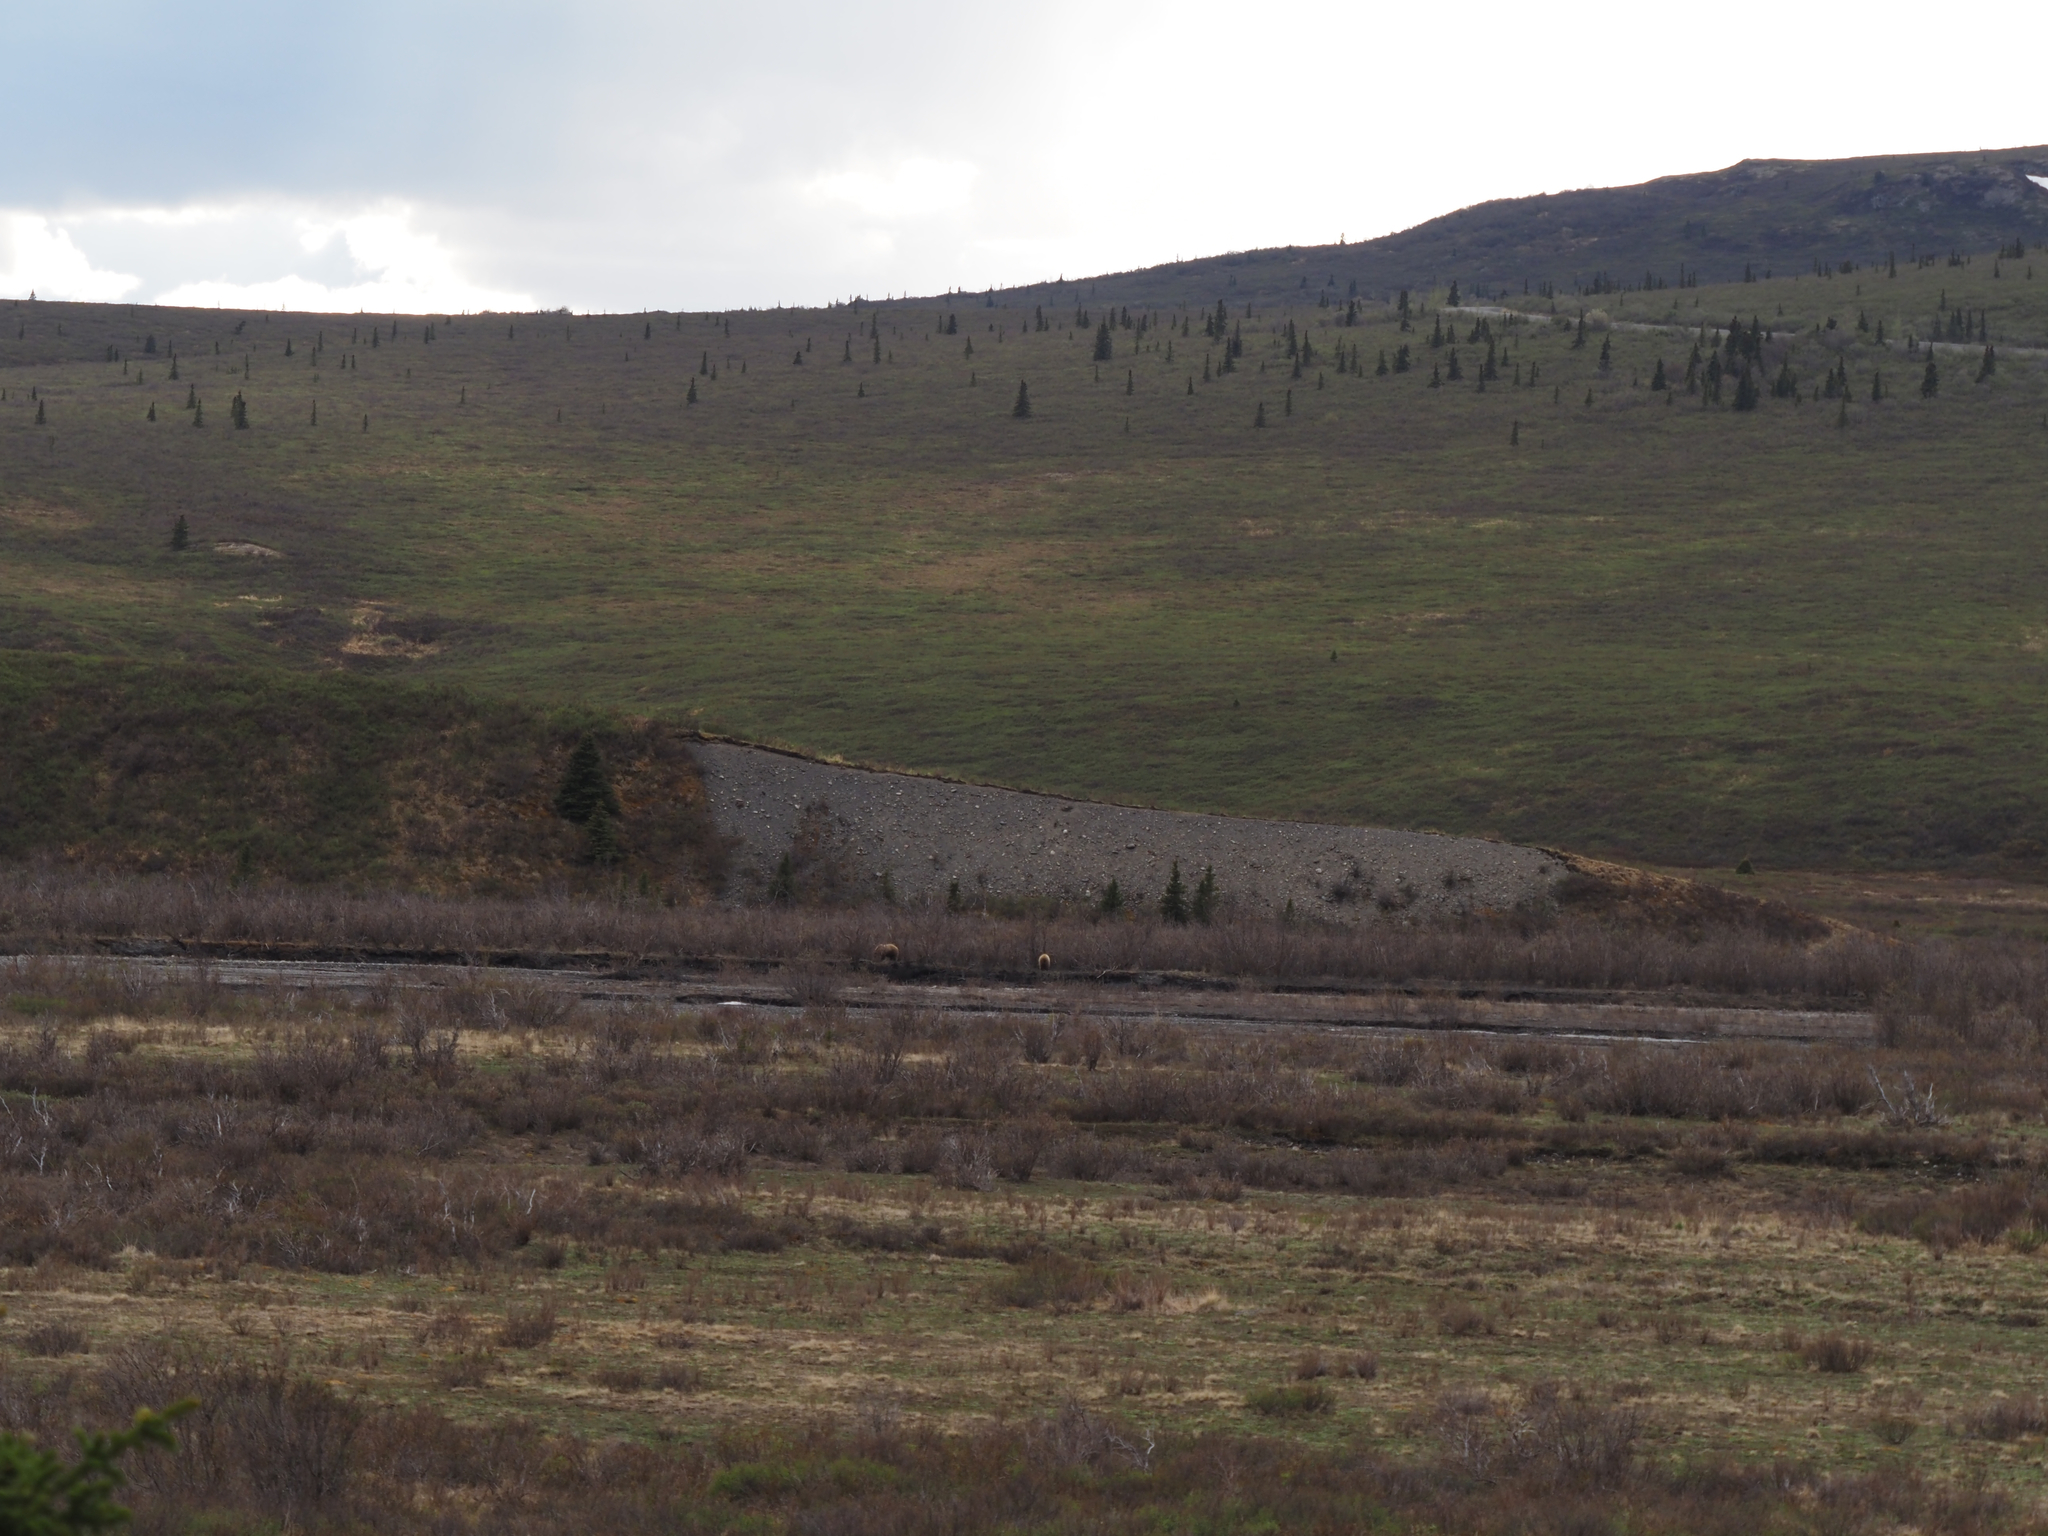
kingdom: Animalia
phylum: Chordata
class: Mammalia
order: Carnivora
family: Ursidae
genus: Ursus
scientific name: Ursus arctos
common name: Brown bear
